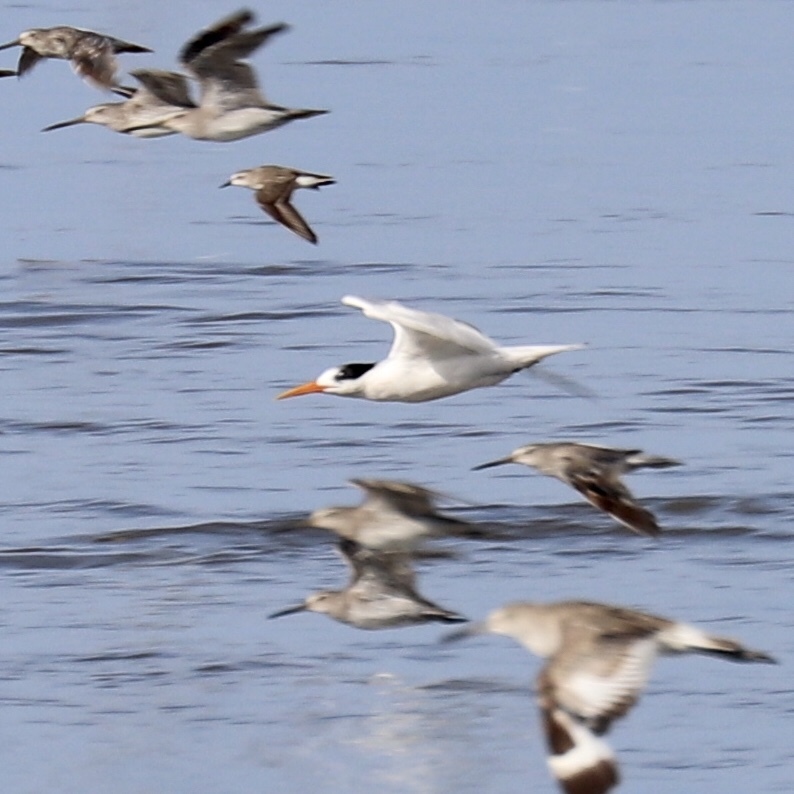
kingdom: Animalia
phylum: Chordata
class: Aves
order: Charadriiformes
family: Laridae
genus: Thalasseus
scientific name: Thalasseus elegans
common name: Elegant tern
